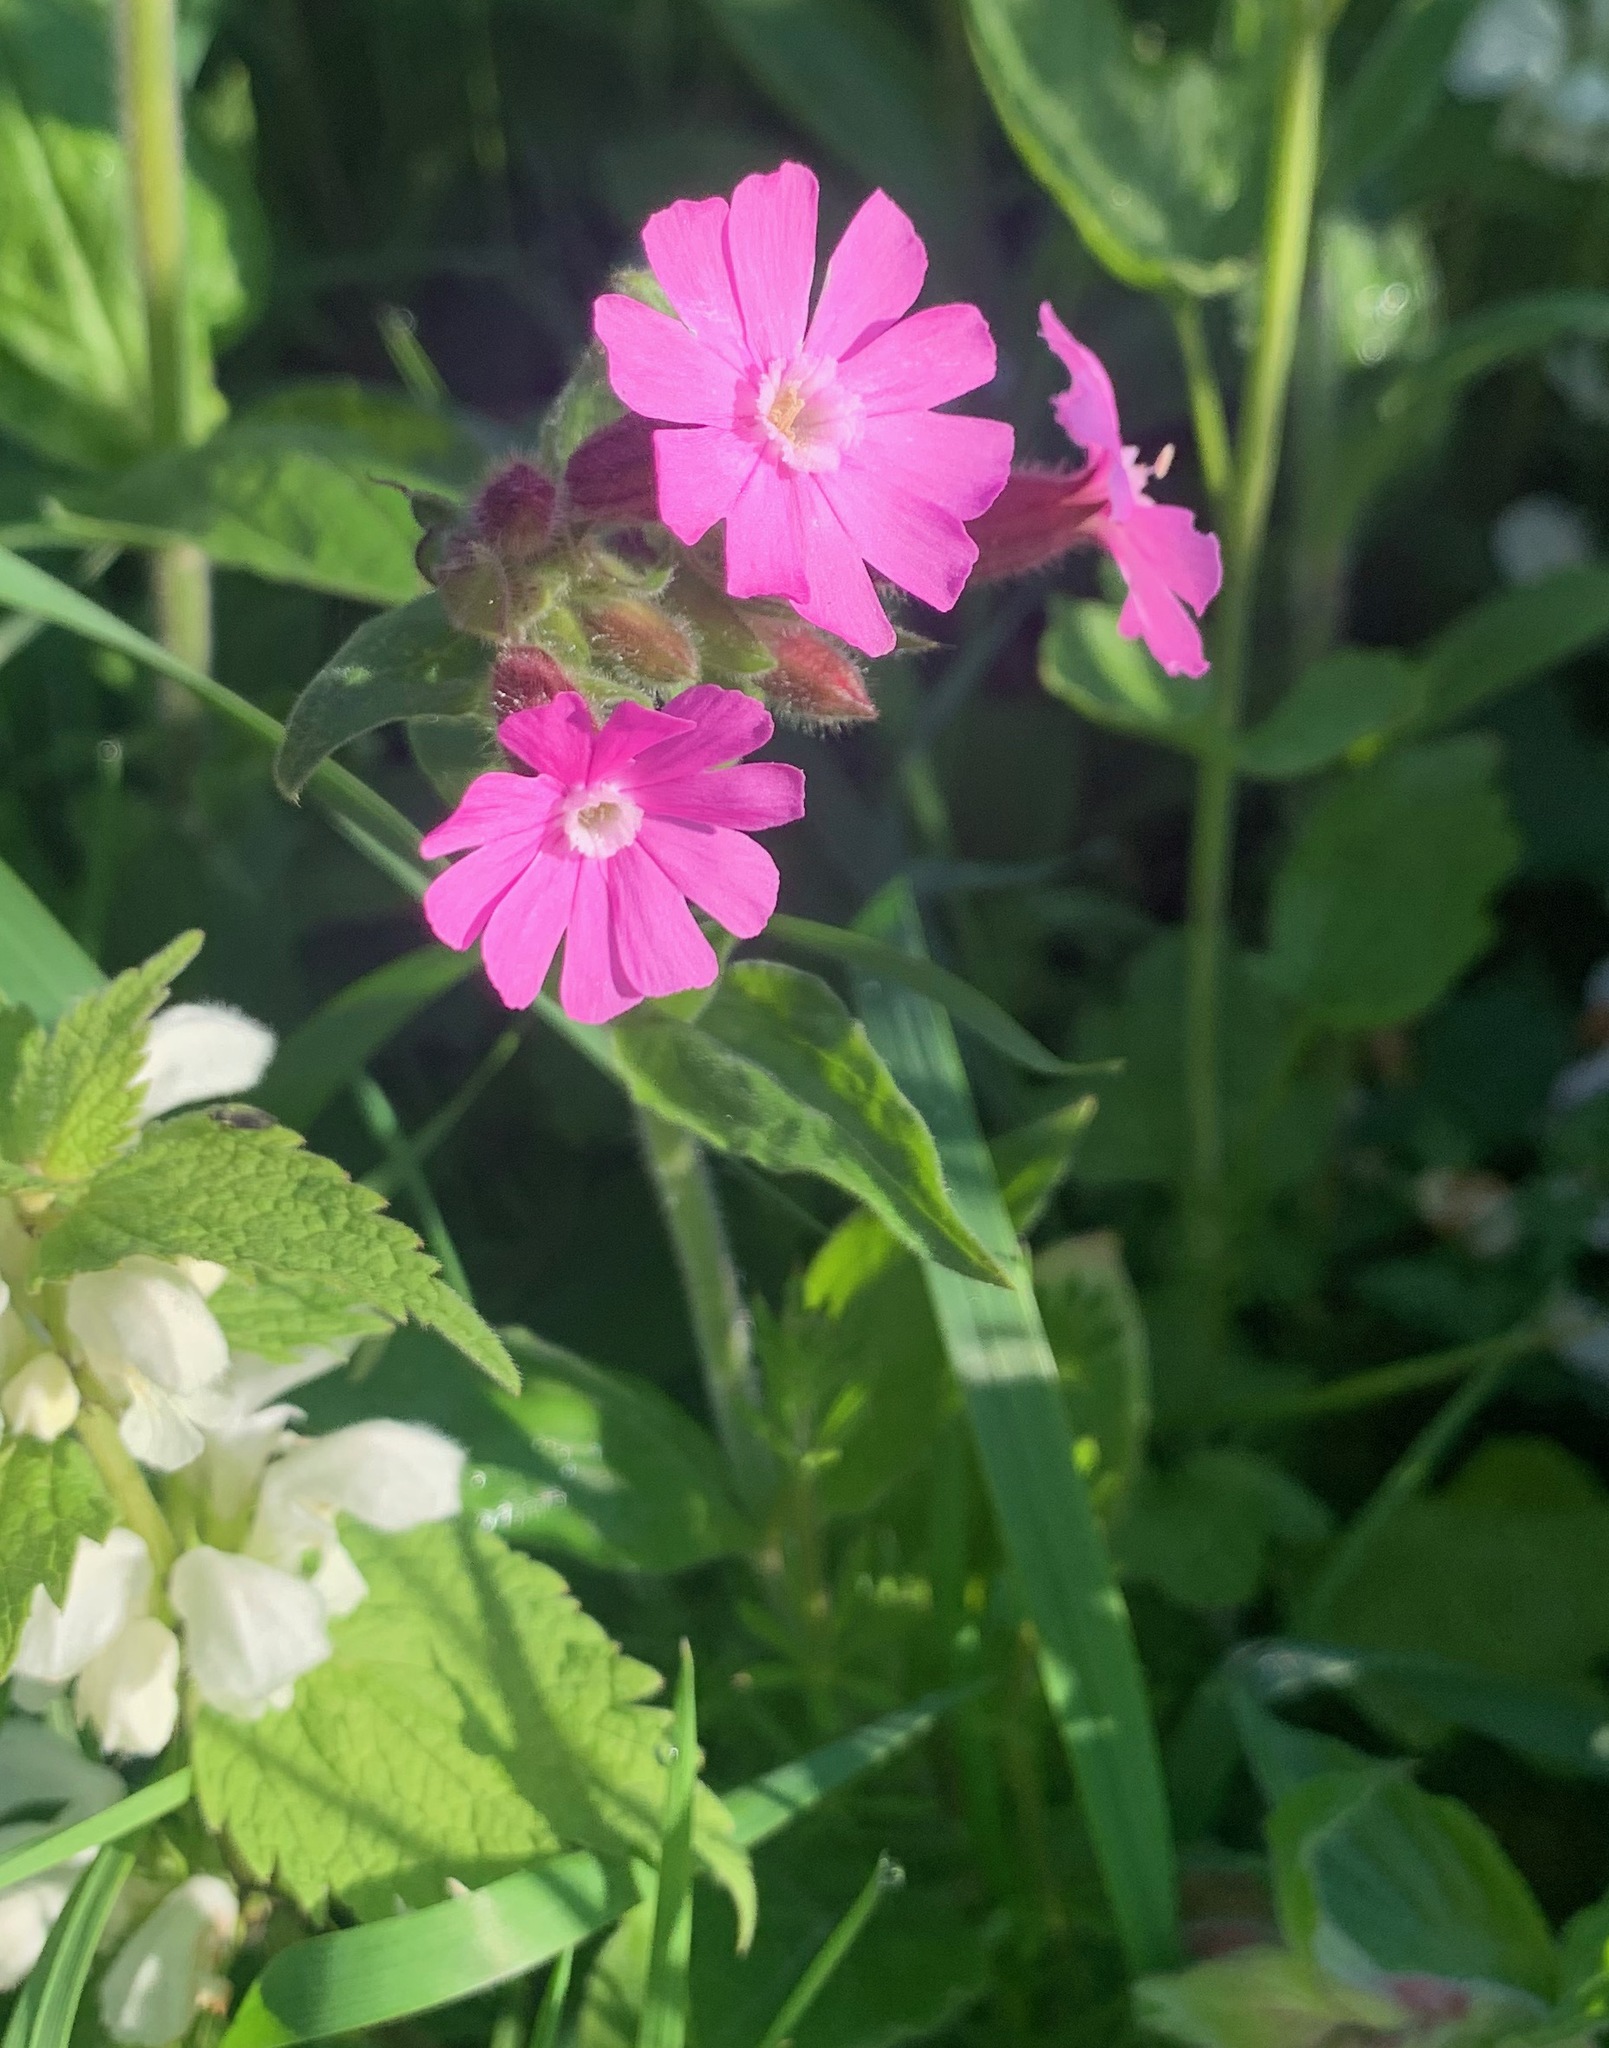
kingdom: Plantae
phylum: Tracheophyta
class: Magnoliopsida
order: Caryophyllales
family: Caryophyllaceae
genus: Silene
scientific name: Silene dioica
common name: Red campion
